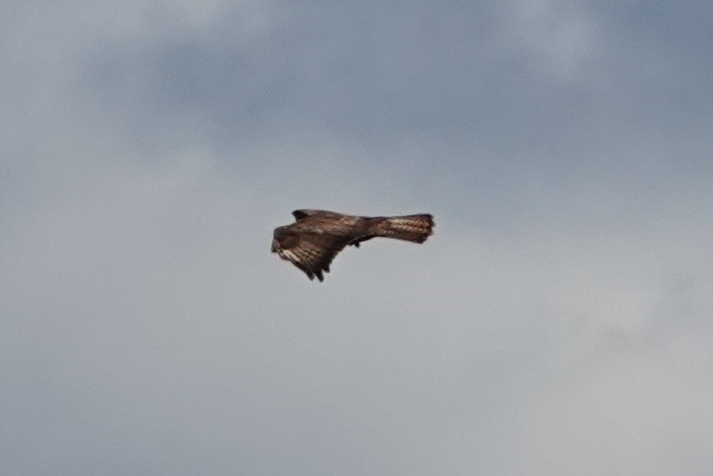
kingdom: Animalia
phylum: Chordata
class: Aves
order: Accipitriformes
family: Accipitridae
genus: Buteo
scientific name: Buteo buteo
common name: Common buzzard
